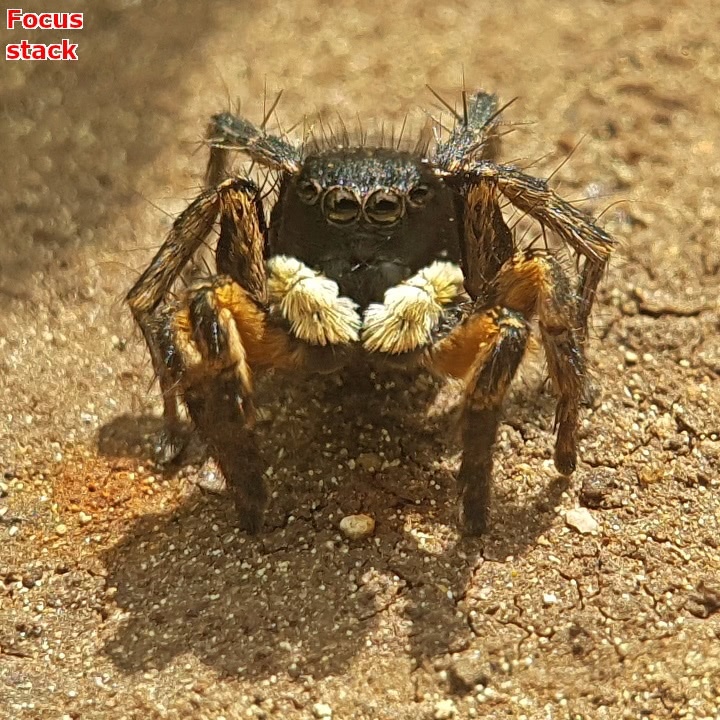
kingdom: Animalia
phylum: Arthropoda
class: Arachnida
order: Araneae
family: Salticidae
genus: Asianellus
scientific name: Asianellus festivus
